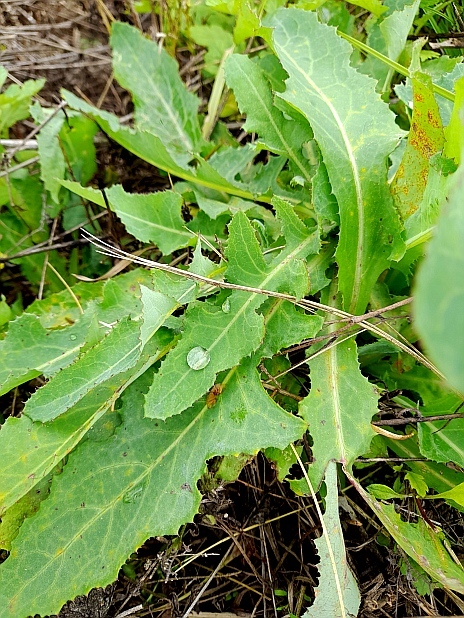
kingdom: Plantae
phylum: Tracheophyta
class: Magnoliopsida
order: Asterales
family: Asteraceae
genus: Sonchus
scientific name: Sonchus arvensis
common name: Perennial sow-thistle
